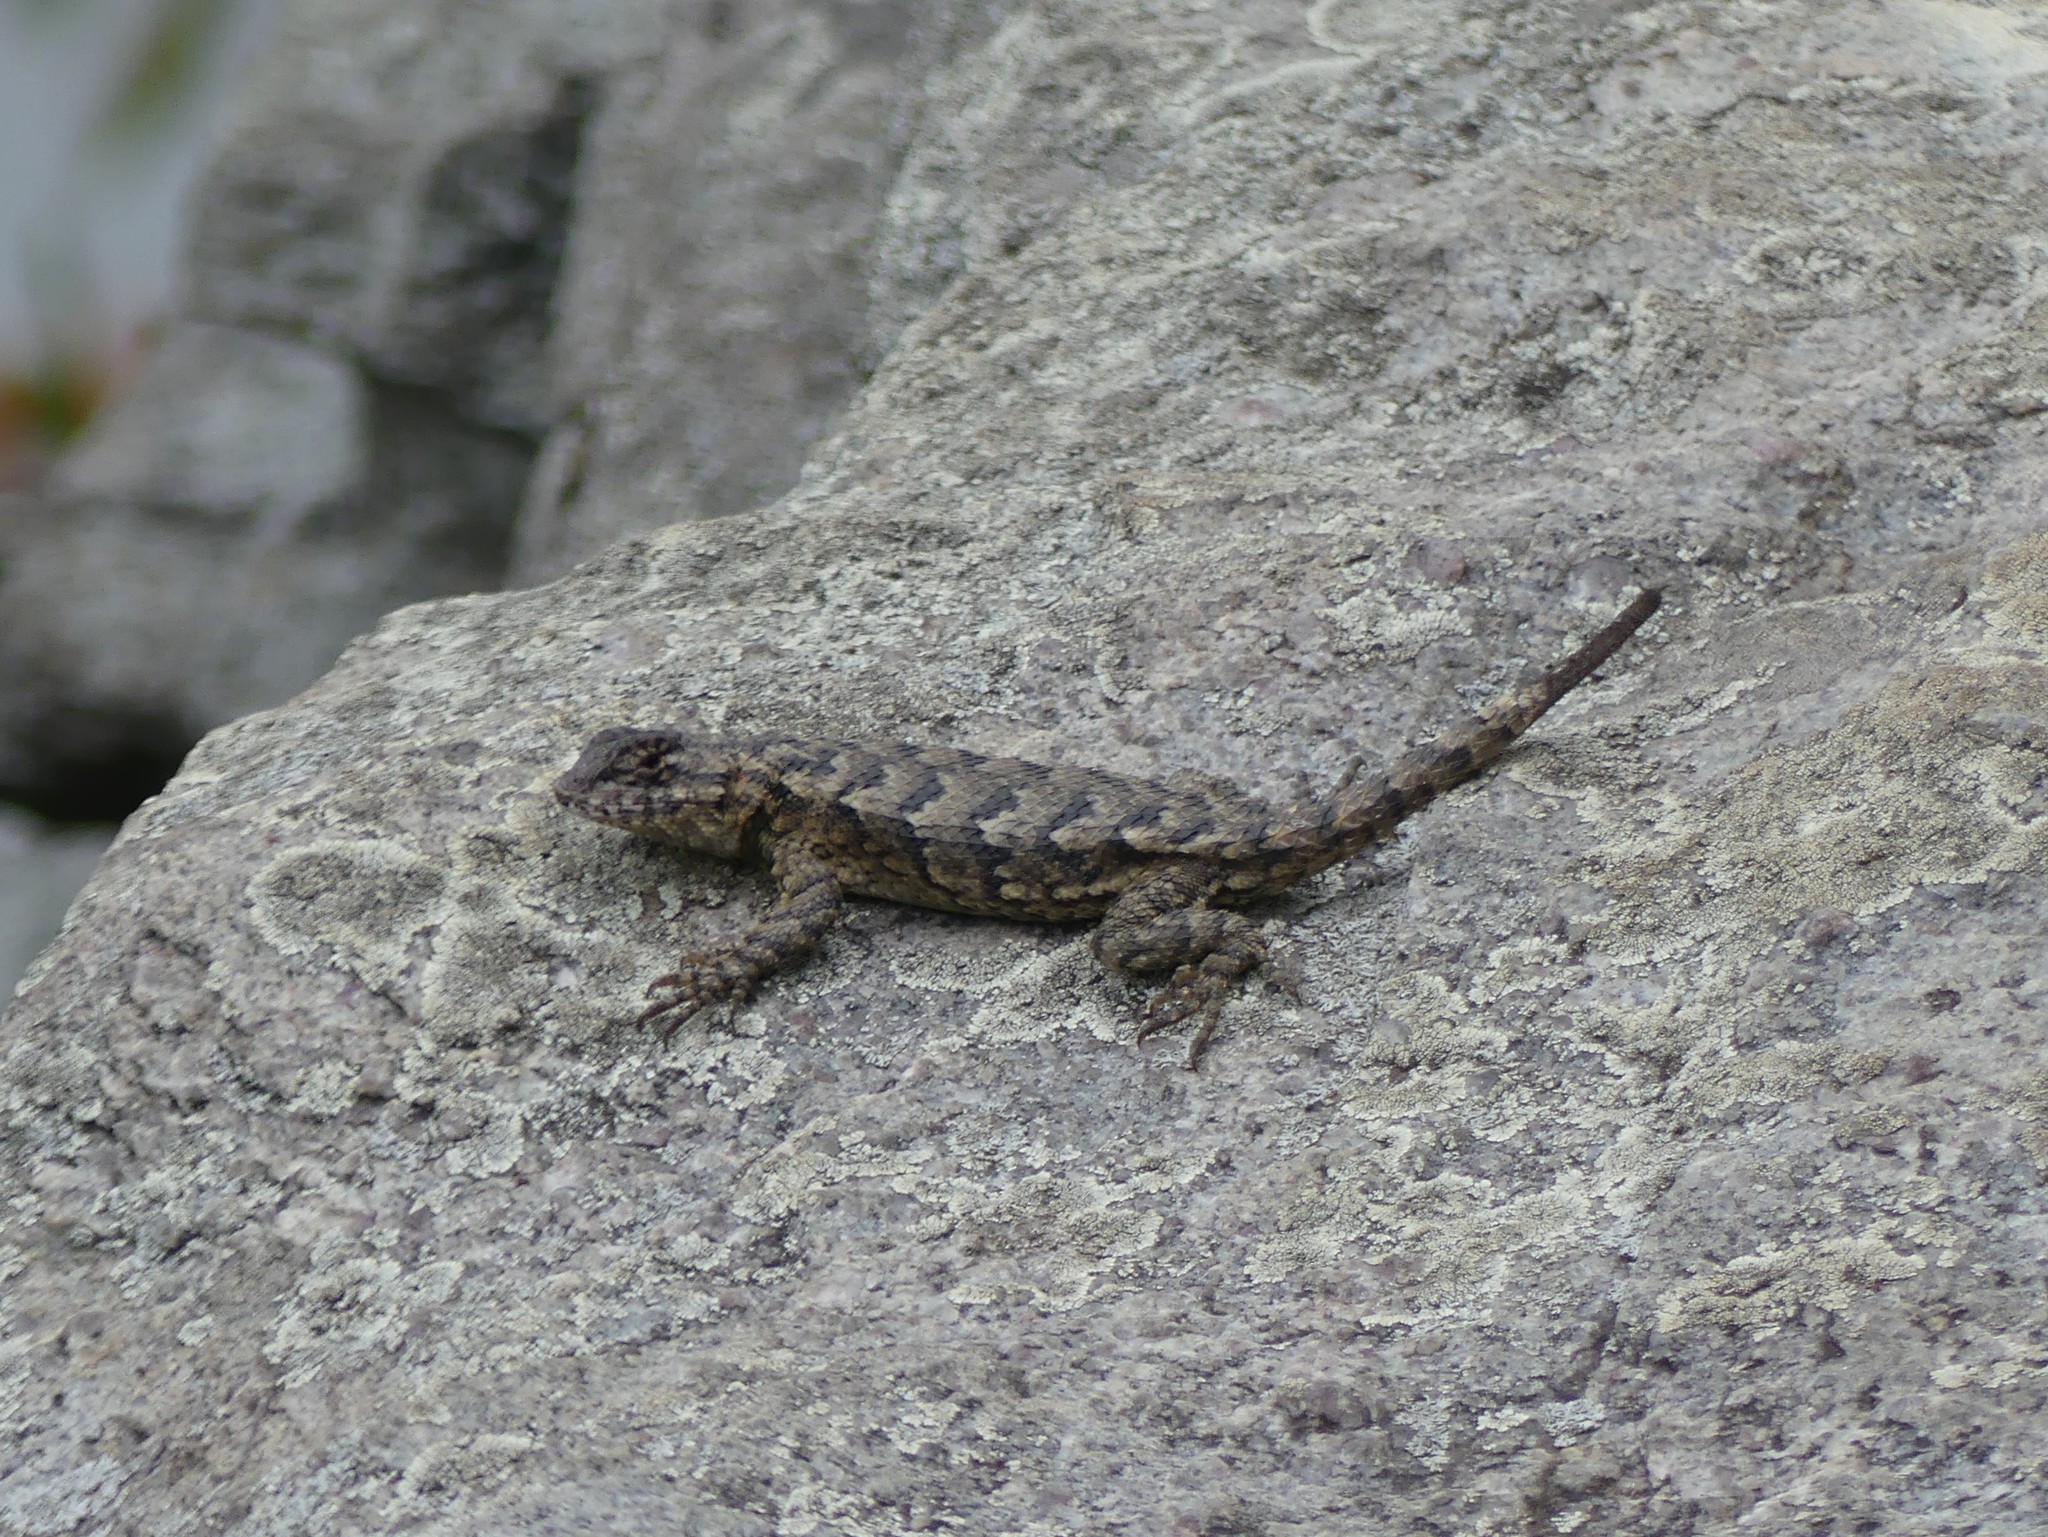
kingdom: Animalia
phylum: Chordata
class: Squamata
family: Phrynosomatidae
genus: Sceloporus
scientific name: Sceloporus undulatus
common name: Eastern fence lizard
